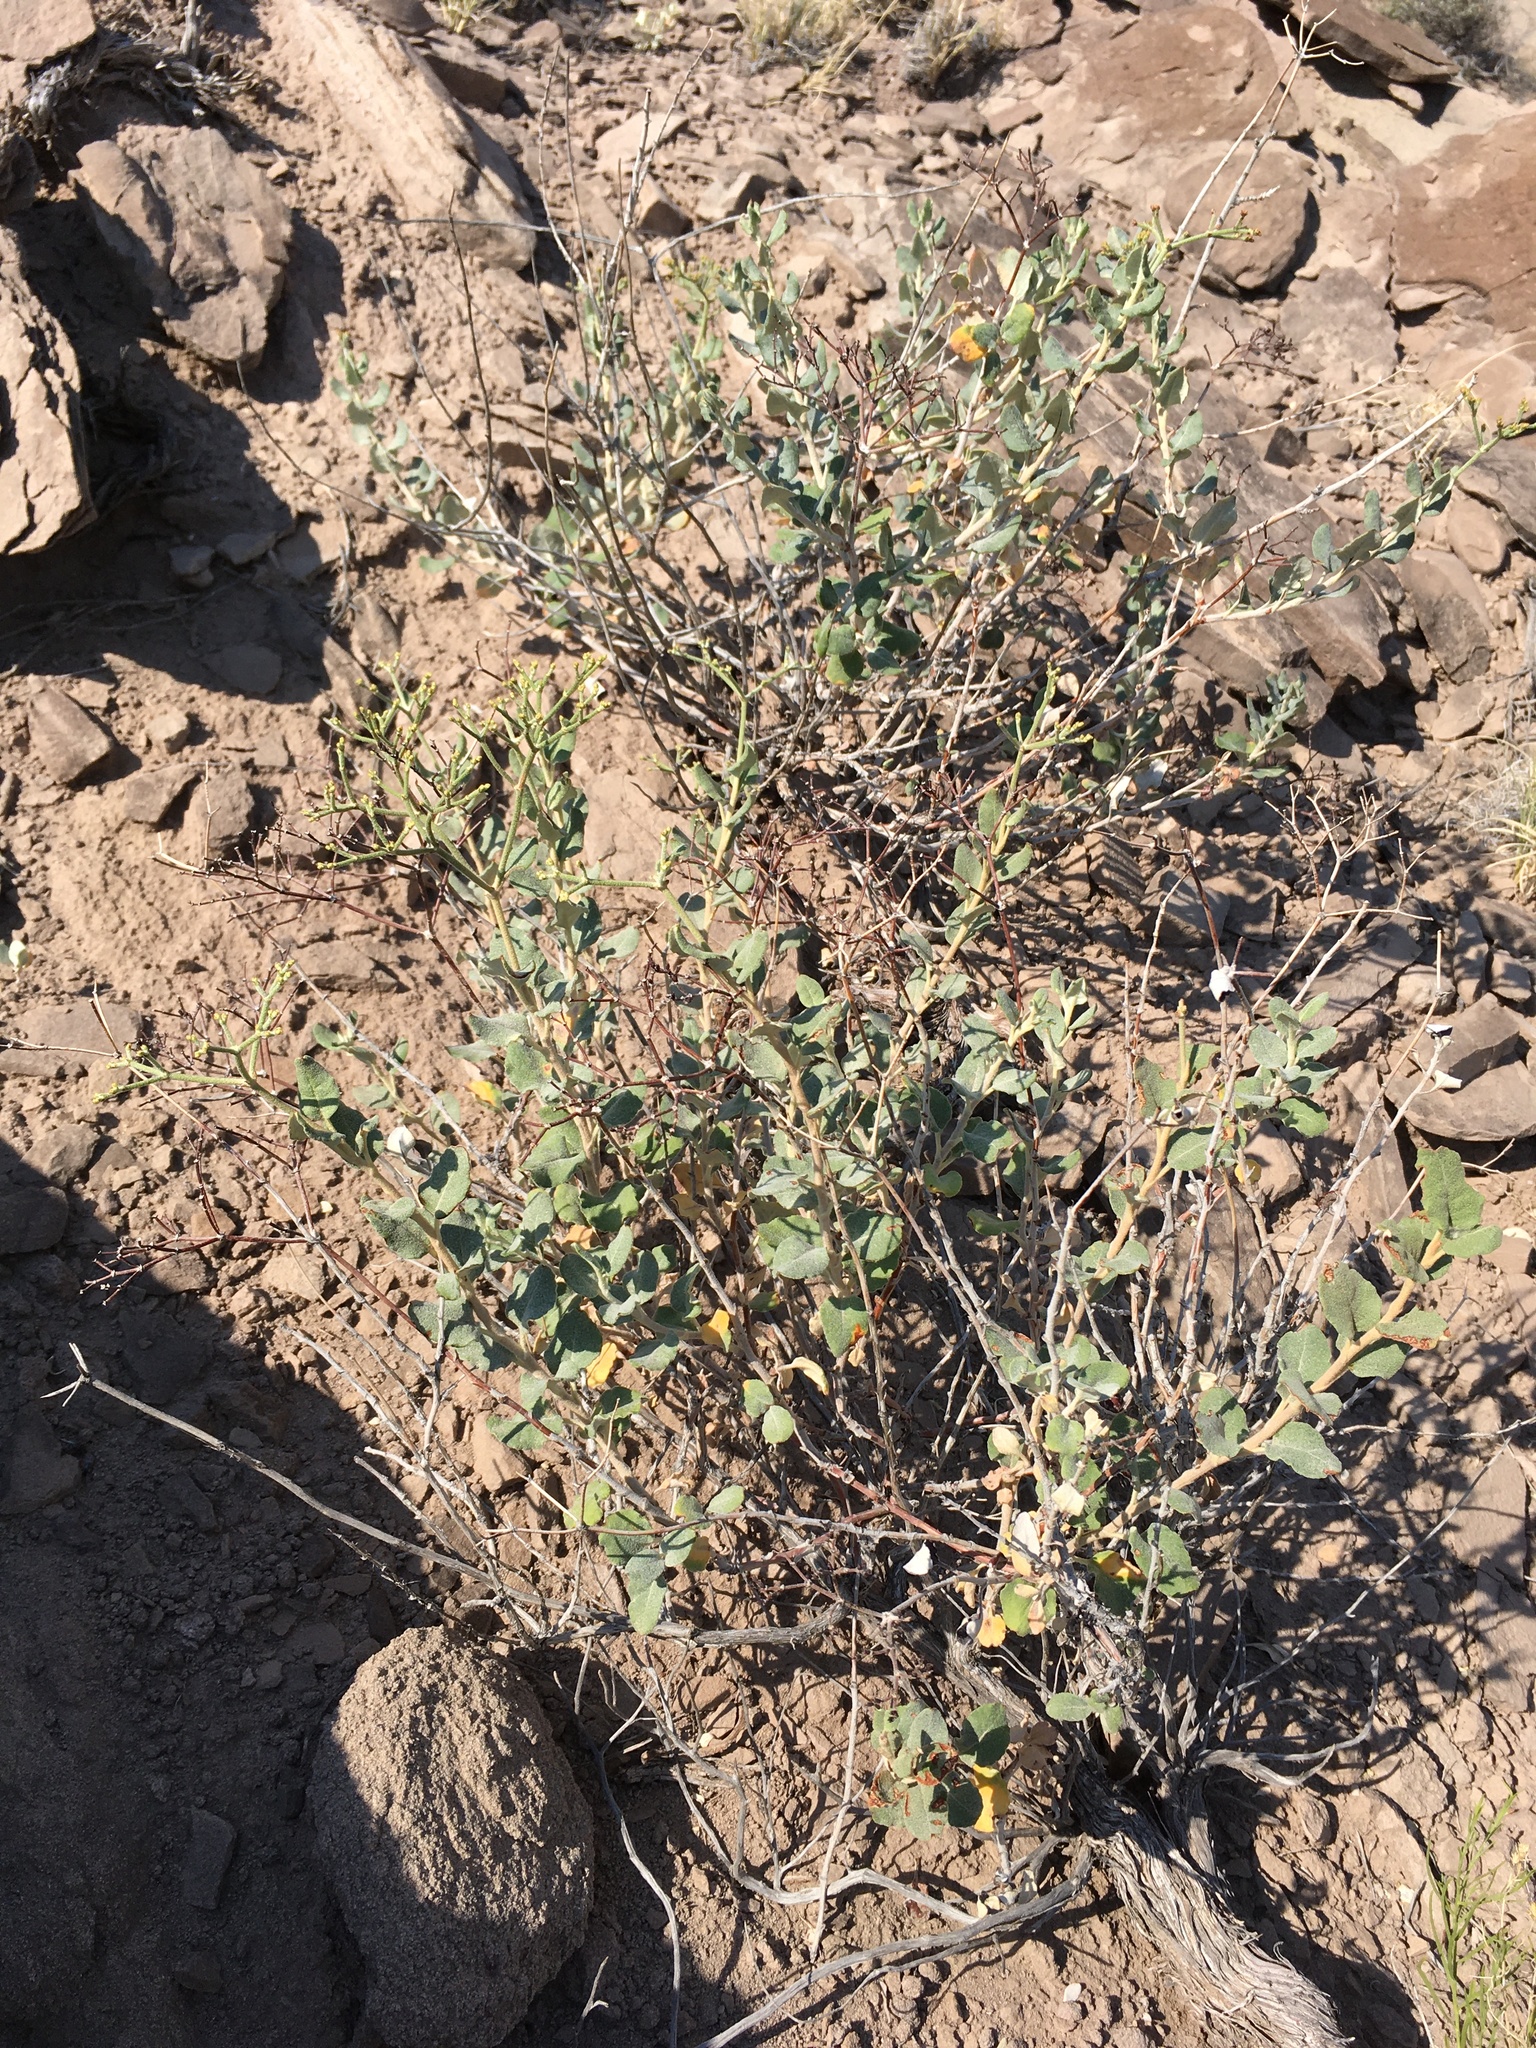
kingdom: Plantae
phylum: Tracheophyta
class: Magnoliopsida
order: Caryophyllales
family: Polygonaceae
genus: Eriogonum
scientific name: Eriogonum corymbosum
